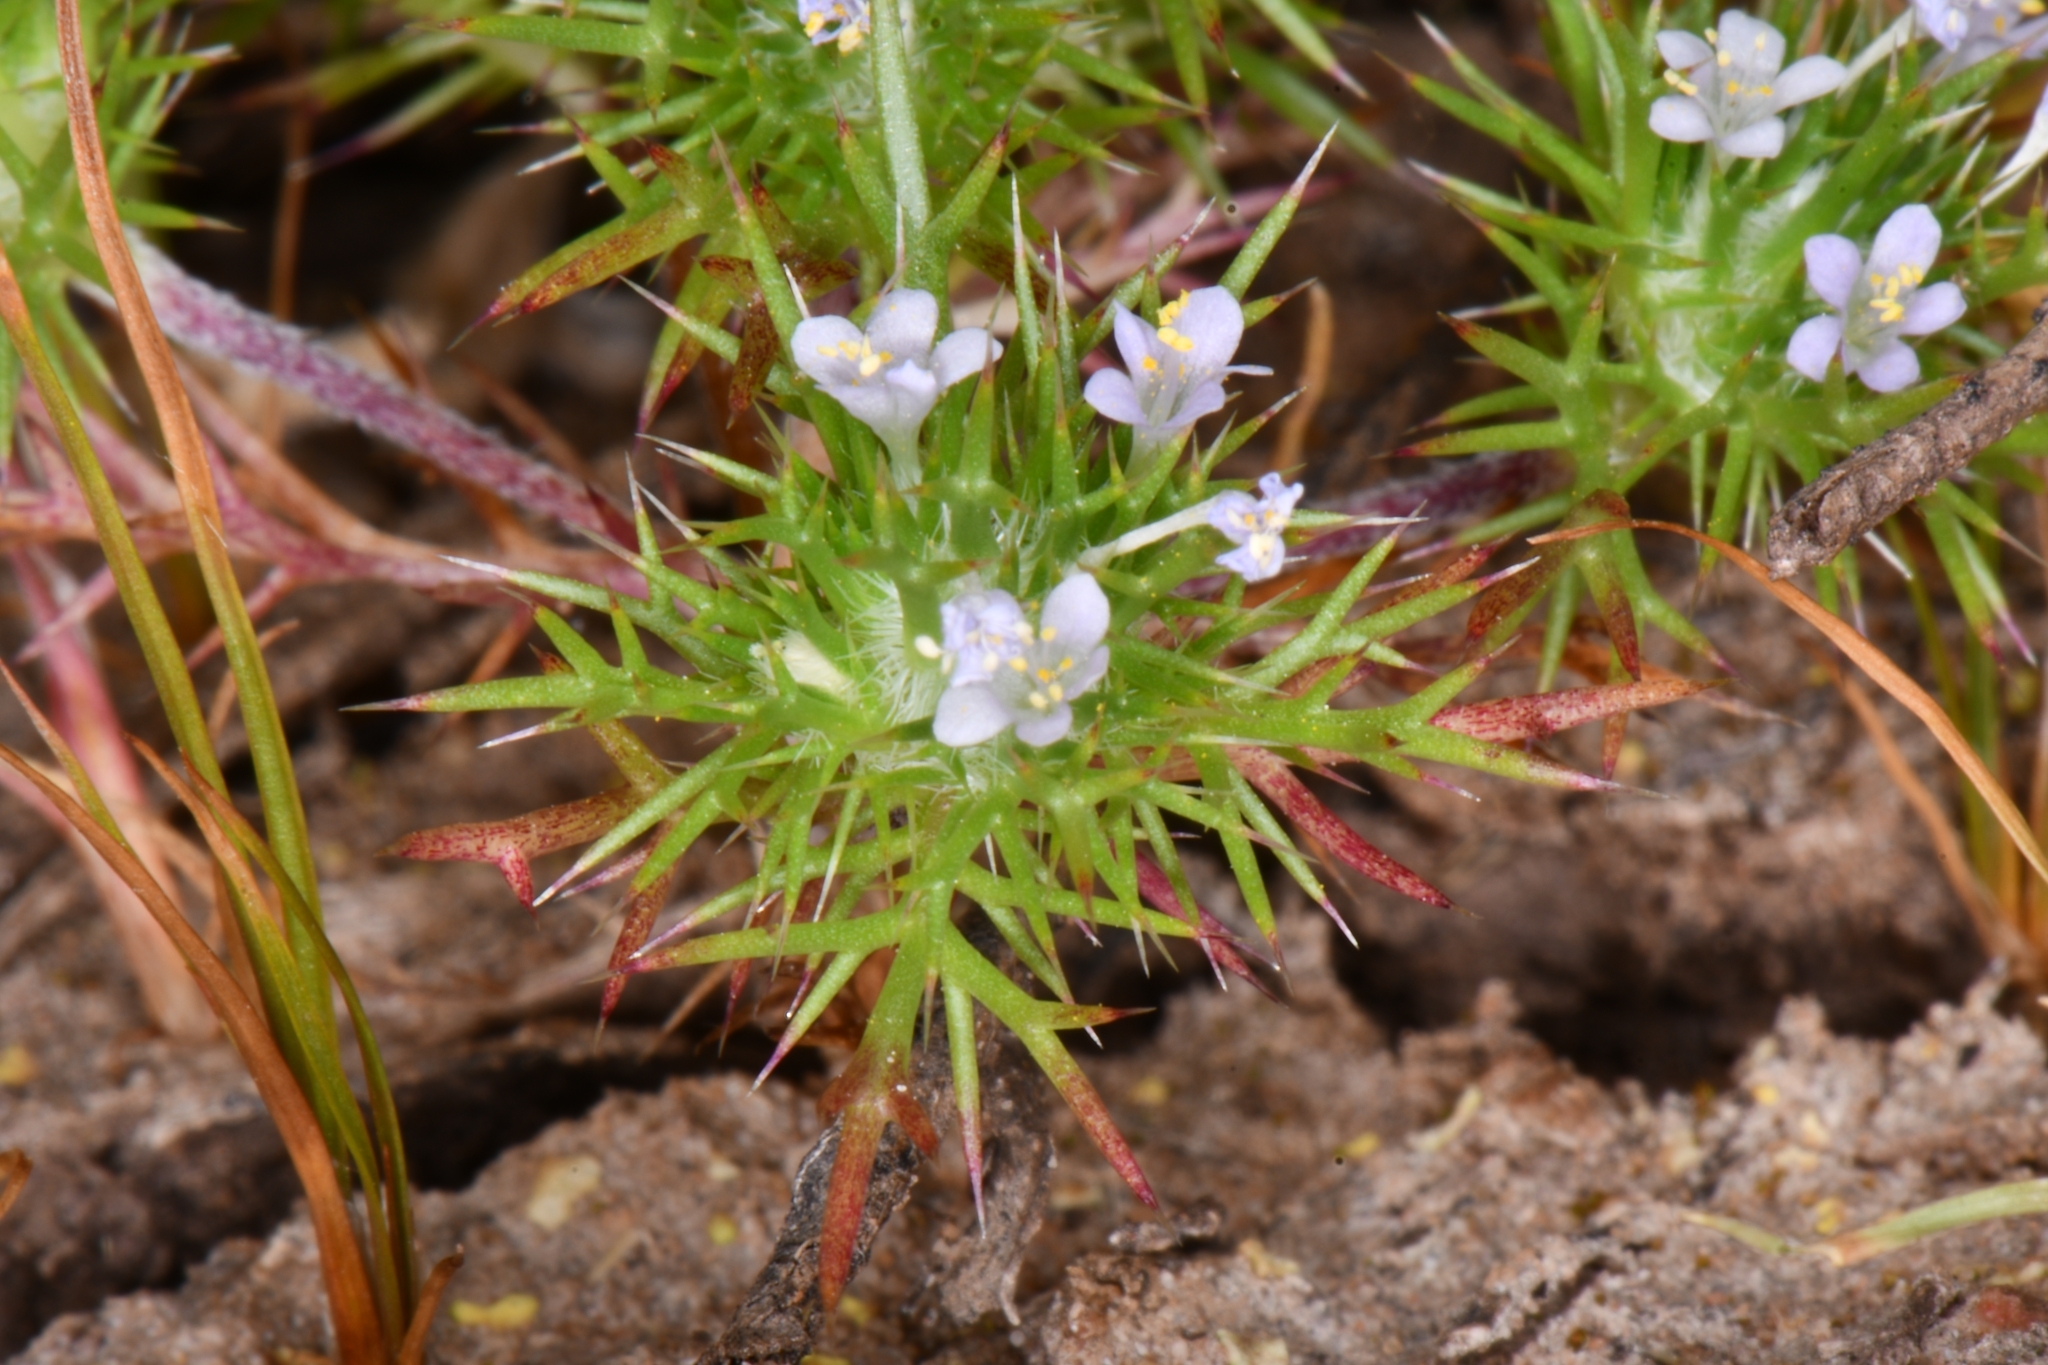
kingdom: Plantae
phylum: Tracheophyta
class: Magnoliopsida
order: Ericales
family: Polemoniaceae
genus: Navarretia
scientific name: Navarretia intertexta
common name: Needle-leaved navarretia
